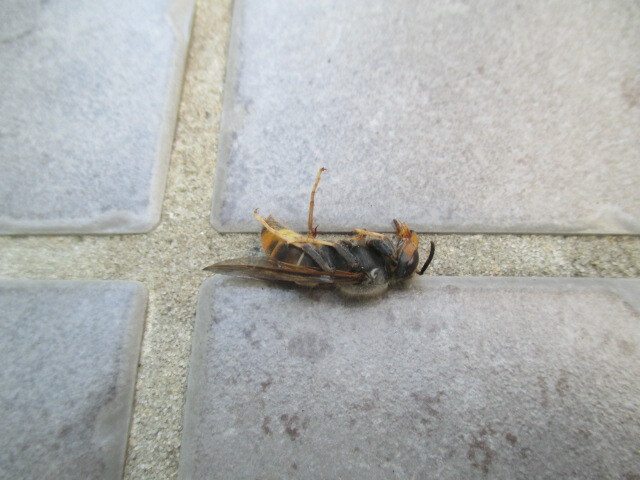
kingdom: Animalia
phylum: Arthropoda
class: Insecta
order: Hymenoptera
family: Vespidae
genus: Vespa
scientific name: Vespa velutina
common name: Asian hornet
